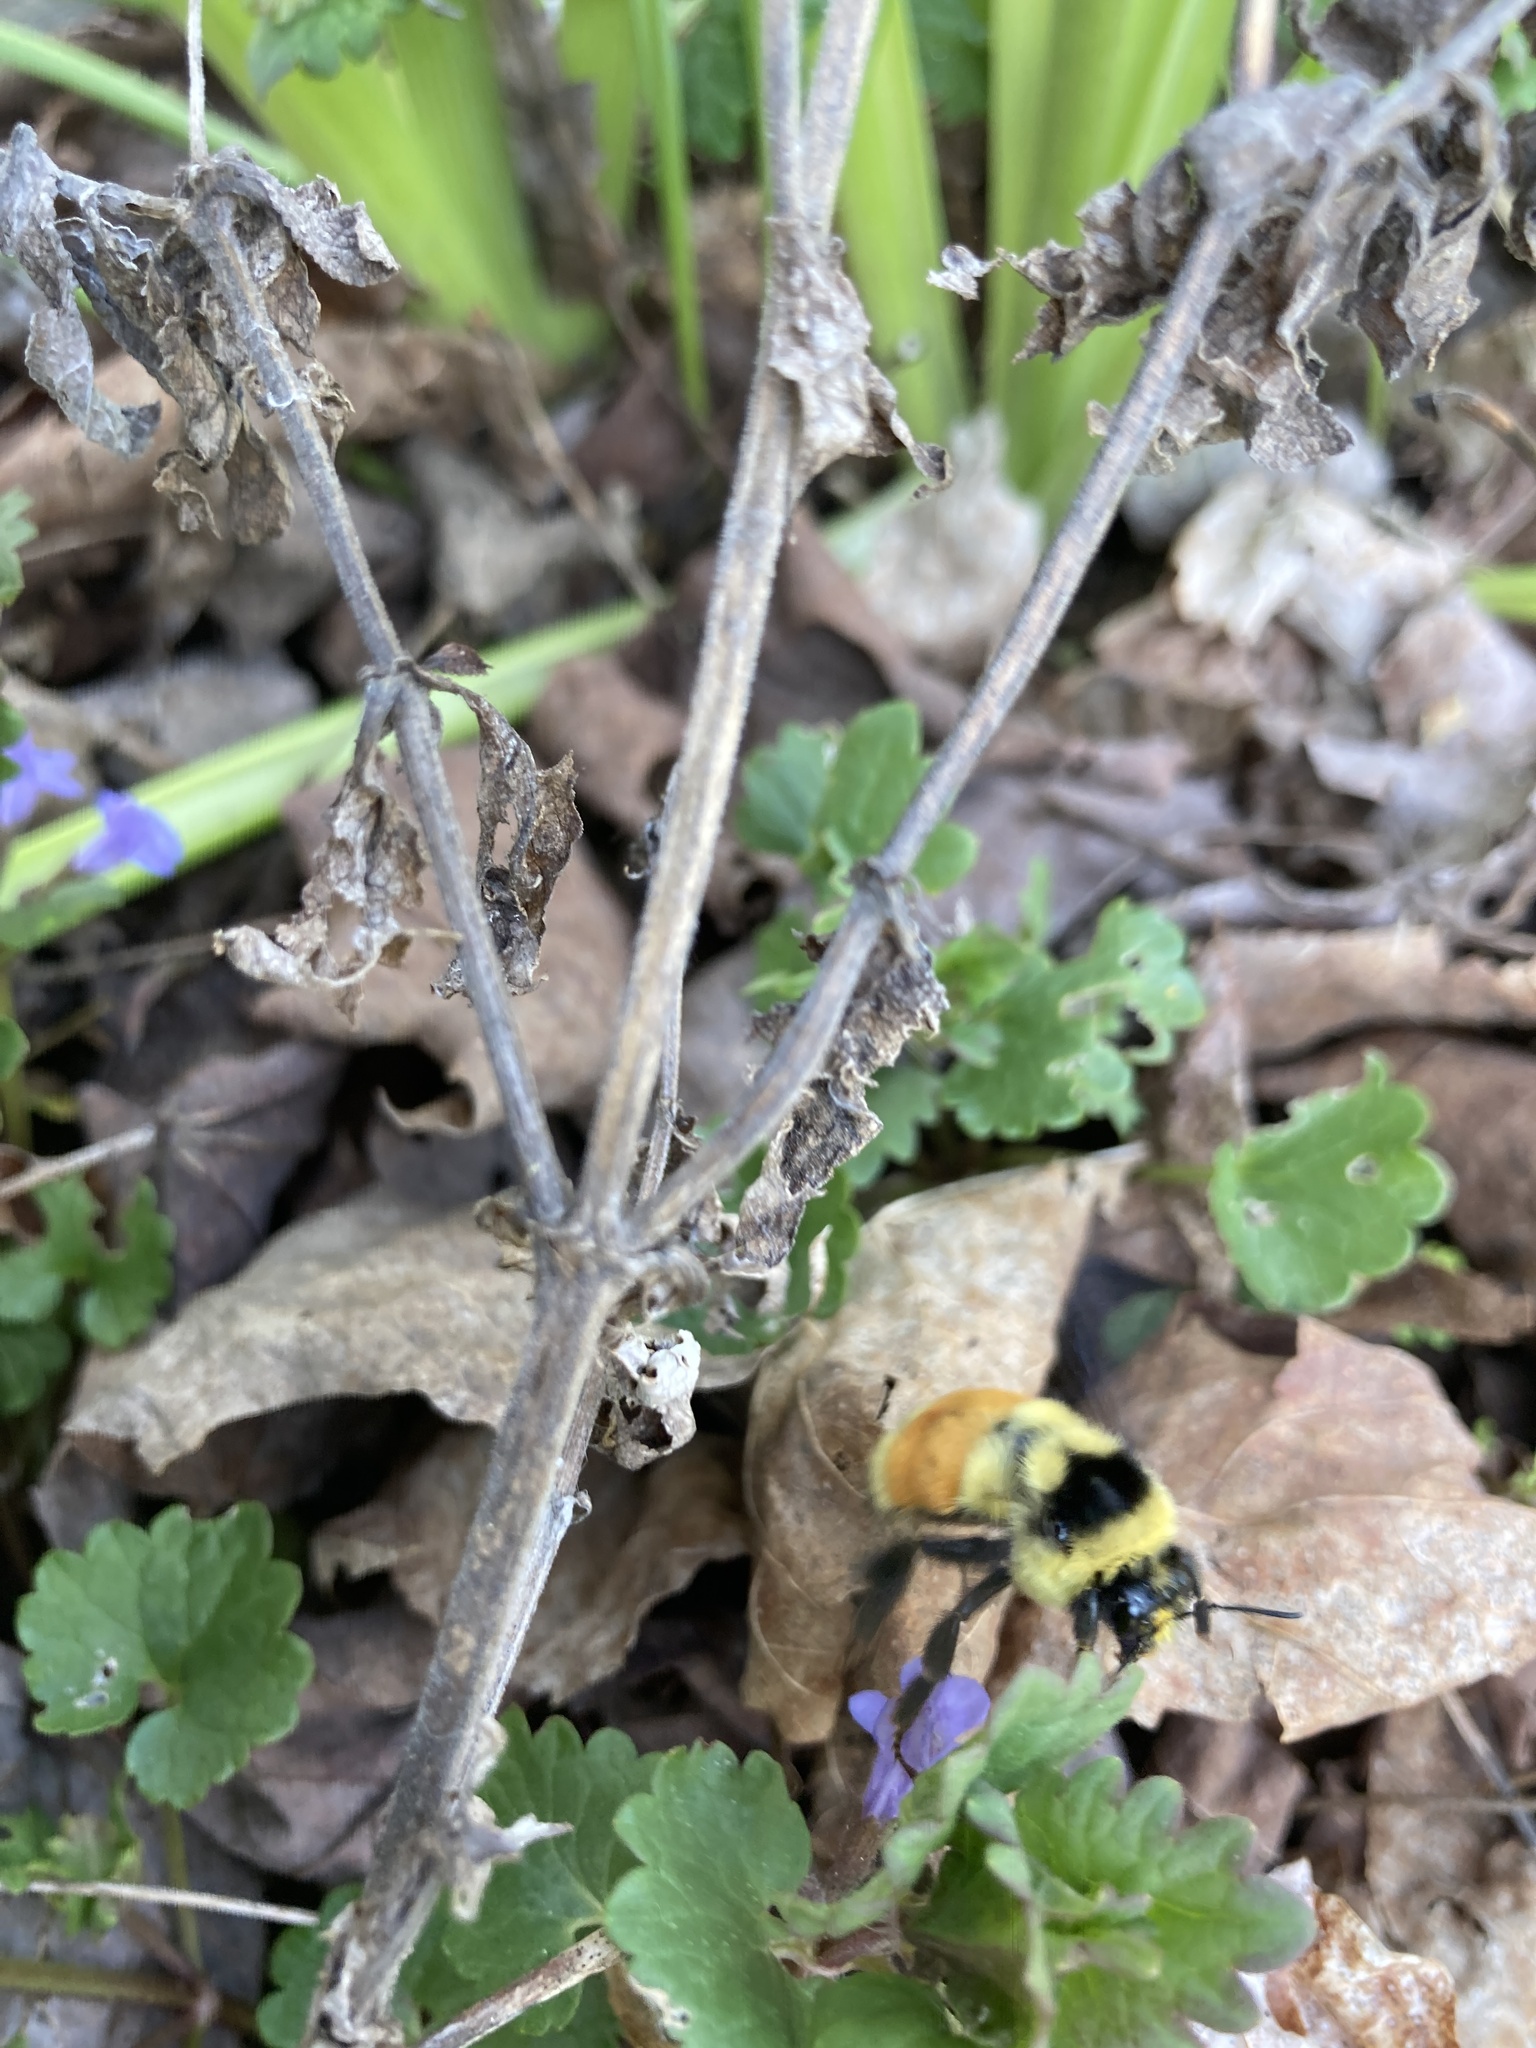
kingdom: Animalia
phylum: Arthropoda
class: Insecta
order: Hymenoptera
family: Apidae
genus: Bombus
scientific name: Bombus ternarius
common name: Tri-colored bumble bee
